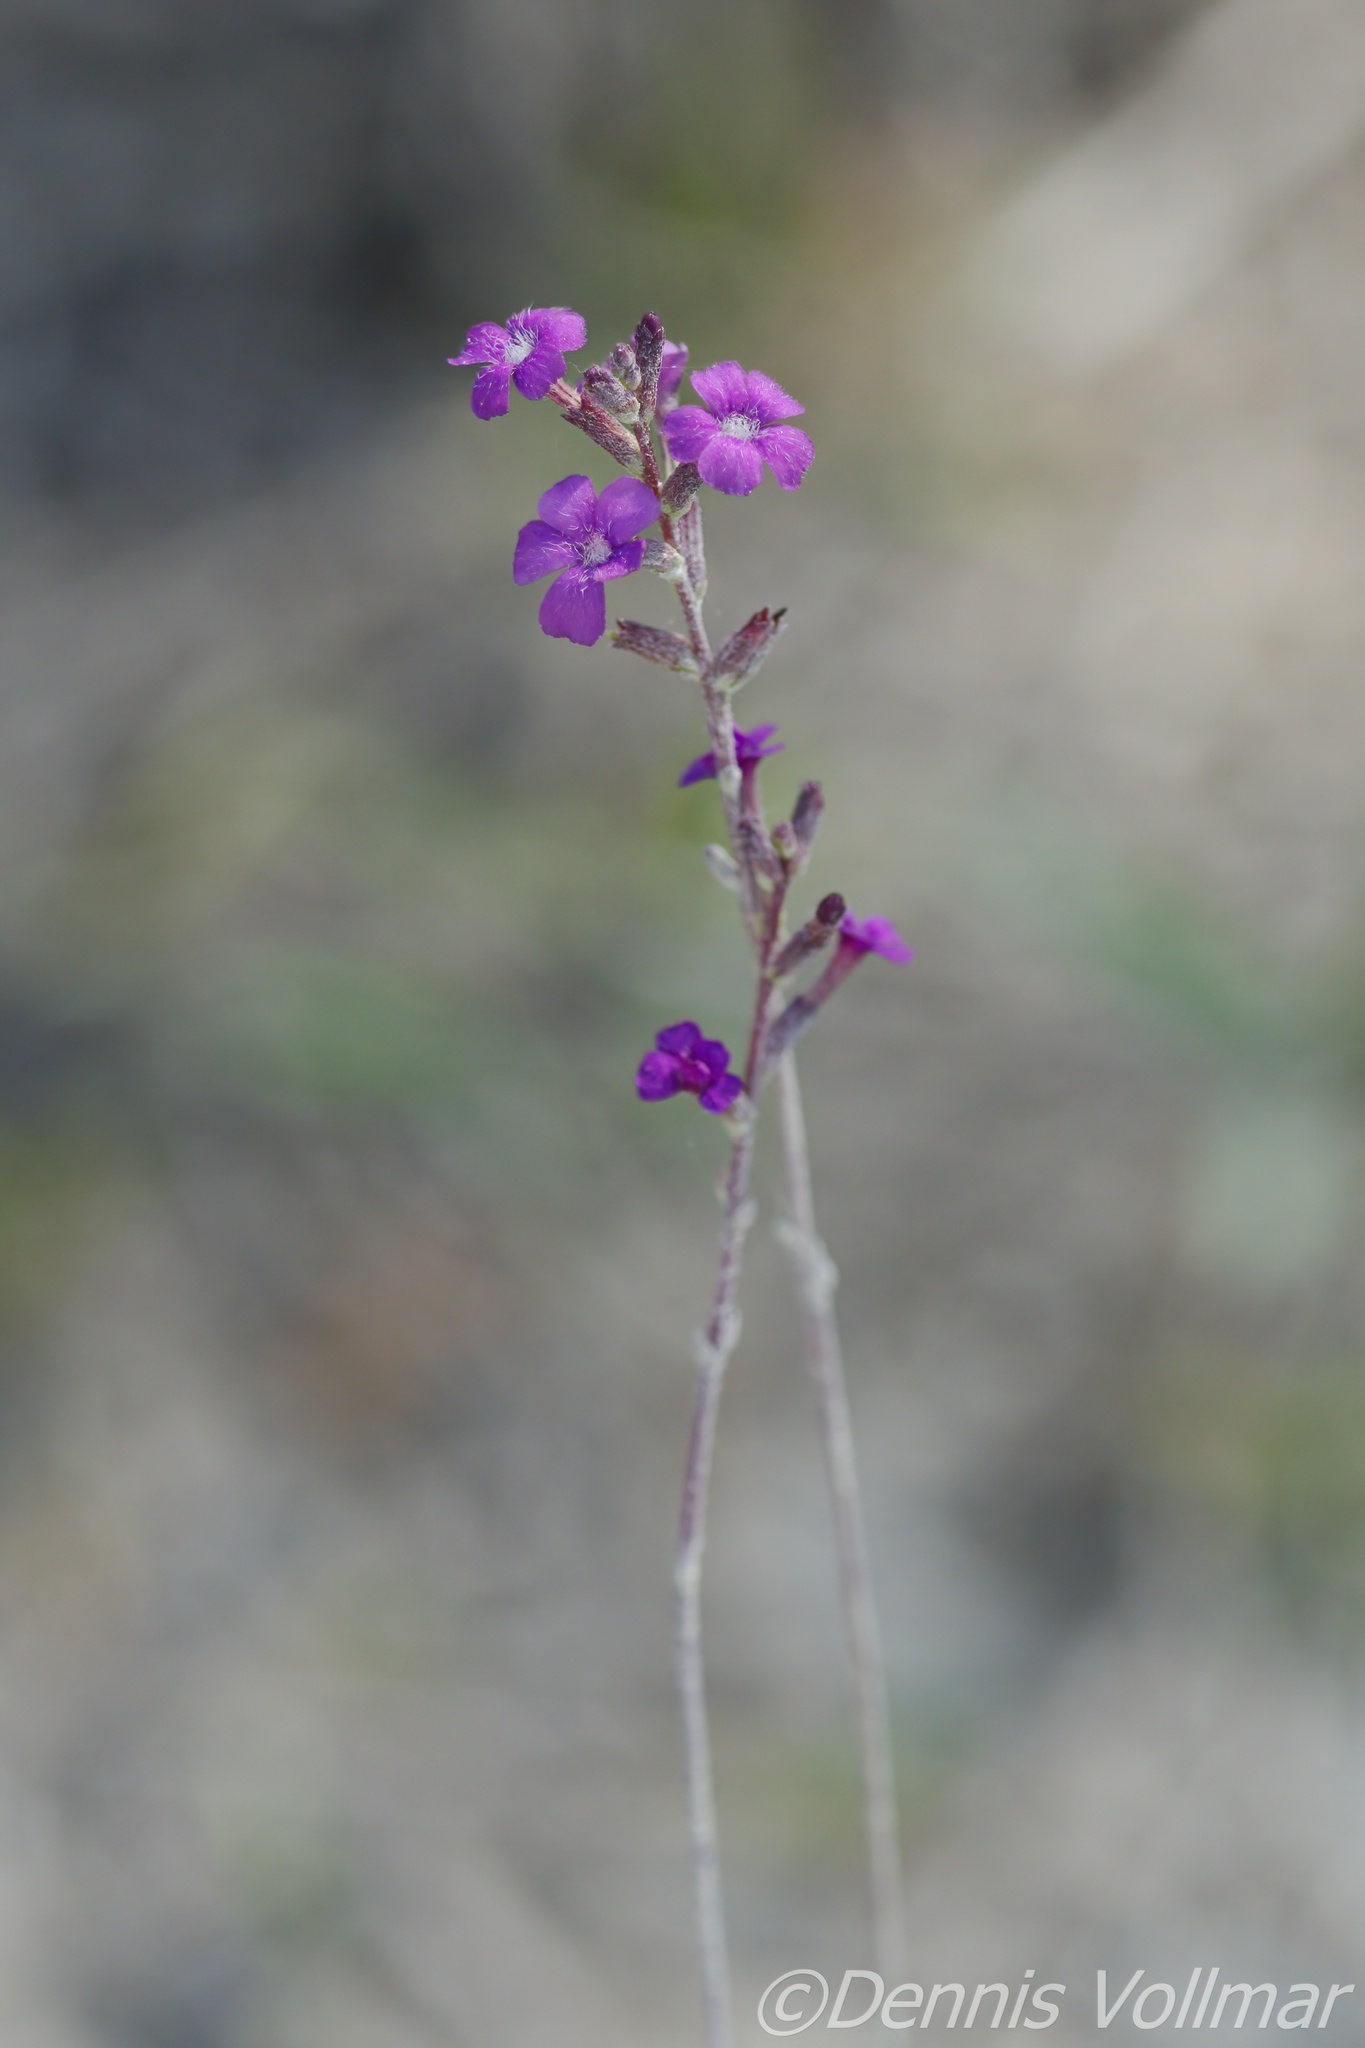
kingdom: Plantae
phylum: Tracheophyta
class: Magnoliopsida
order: Lamiales
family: Orobanchaceae
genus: Buchnera
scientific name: Buchnera floridana
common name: Florida bluehearts
